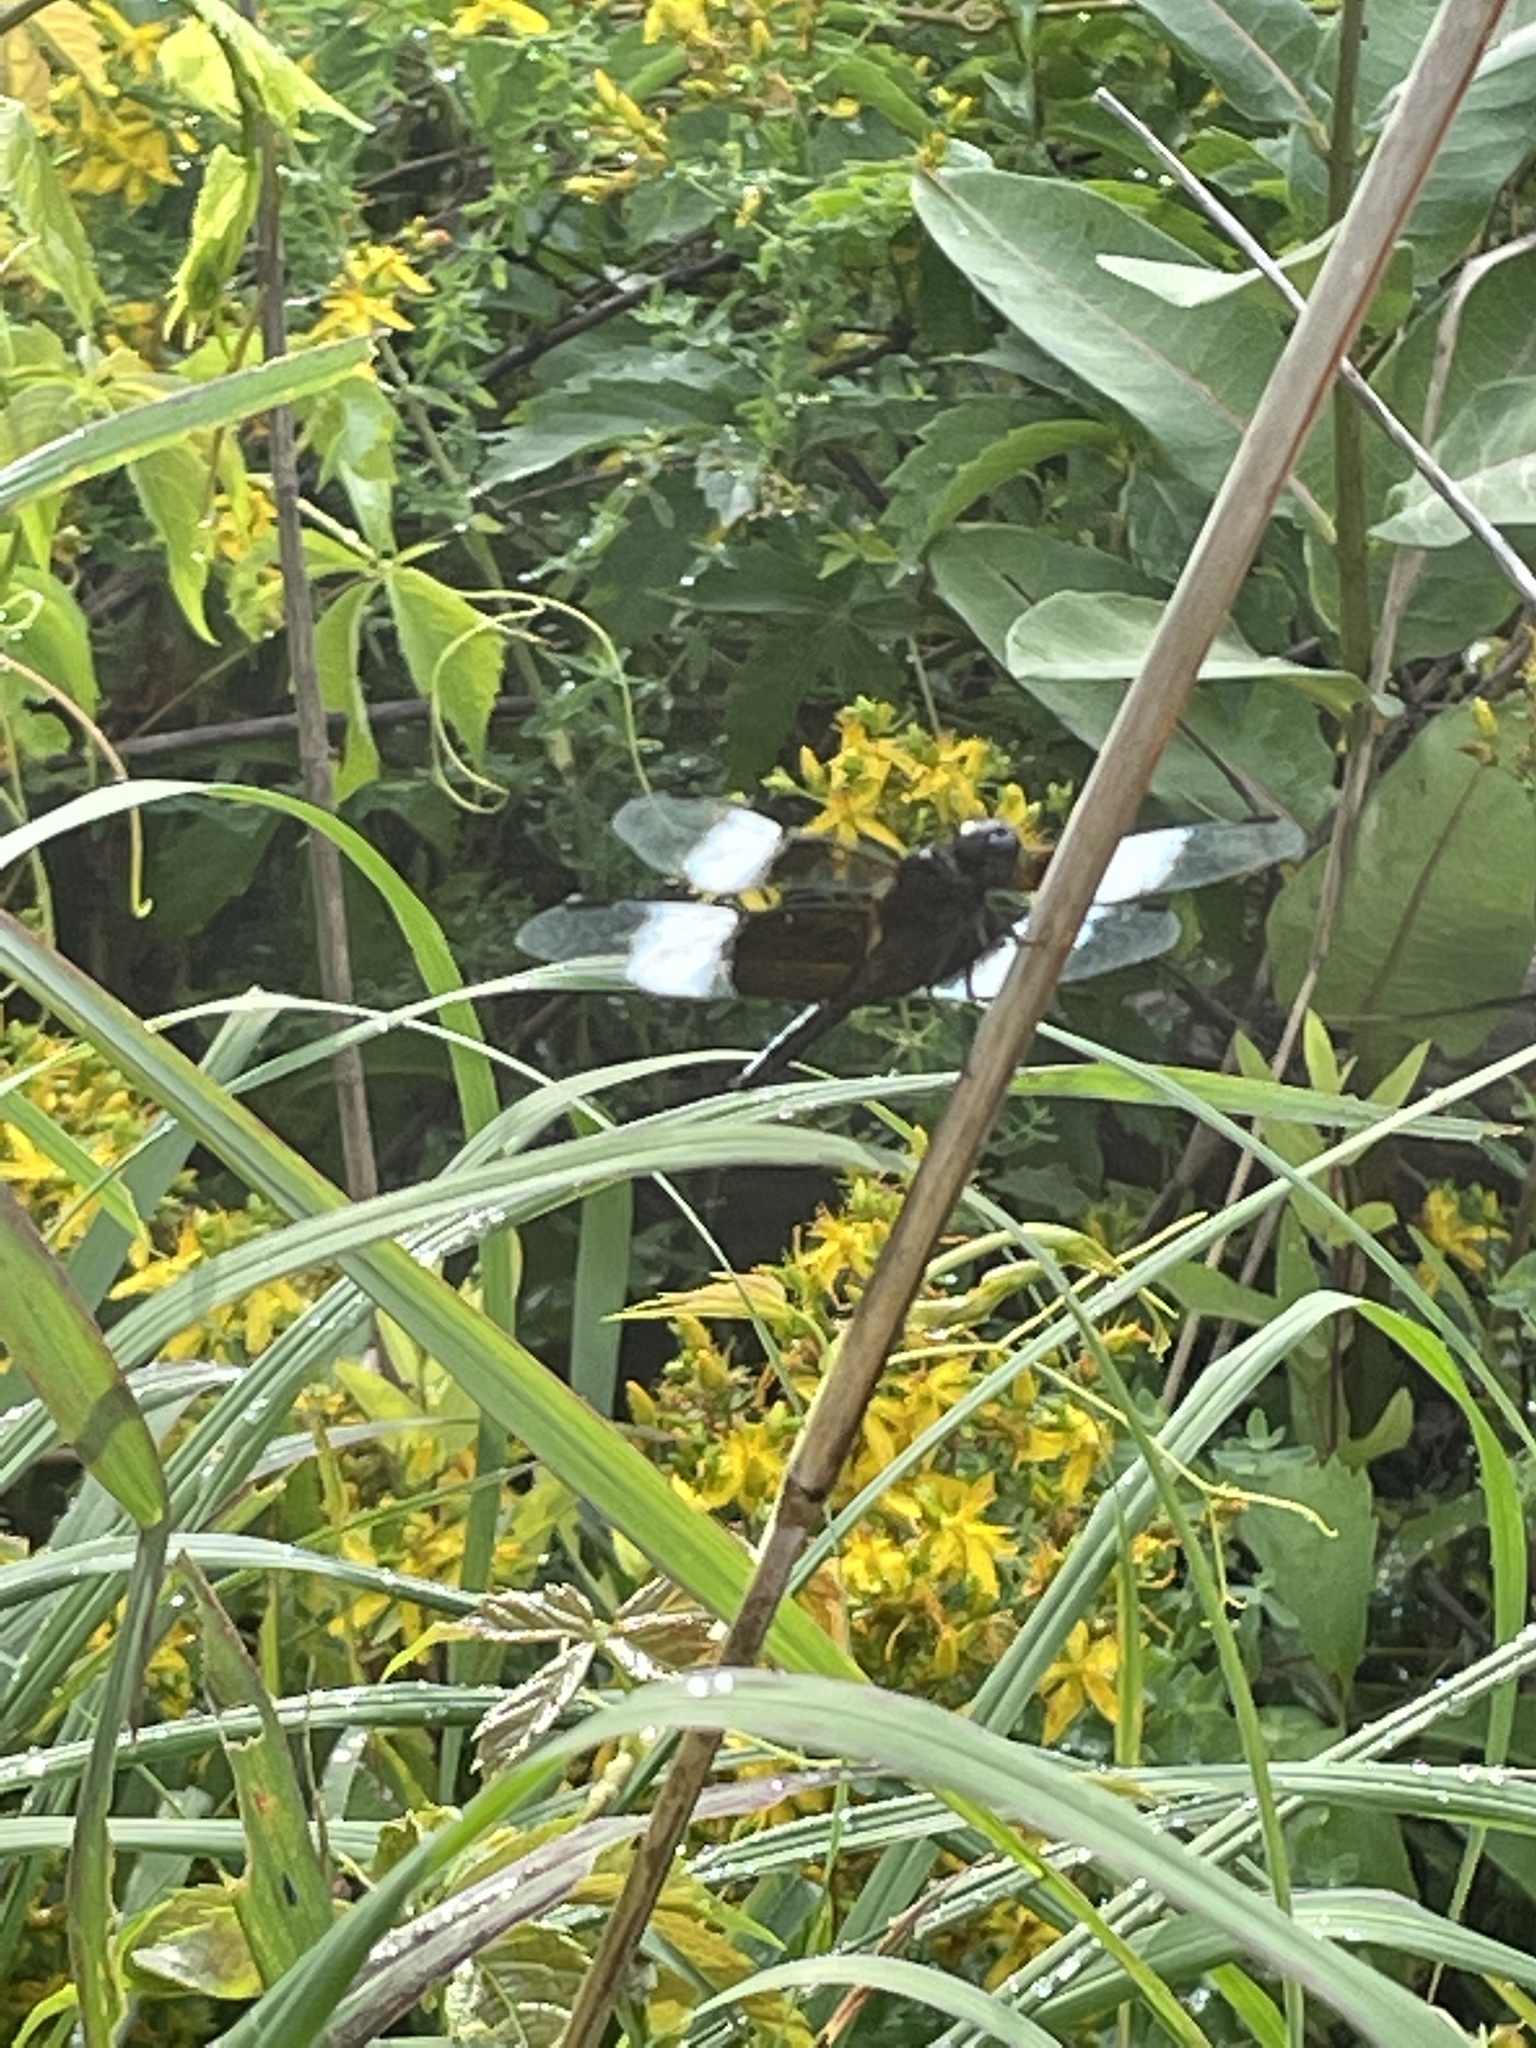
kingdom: Animalia
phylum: Arthropoda
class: Insecta
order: Odonata
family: Libellulidae
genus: Libellula
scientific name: Libellula luctuosa
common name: Widow skimmer
